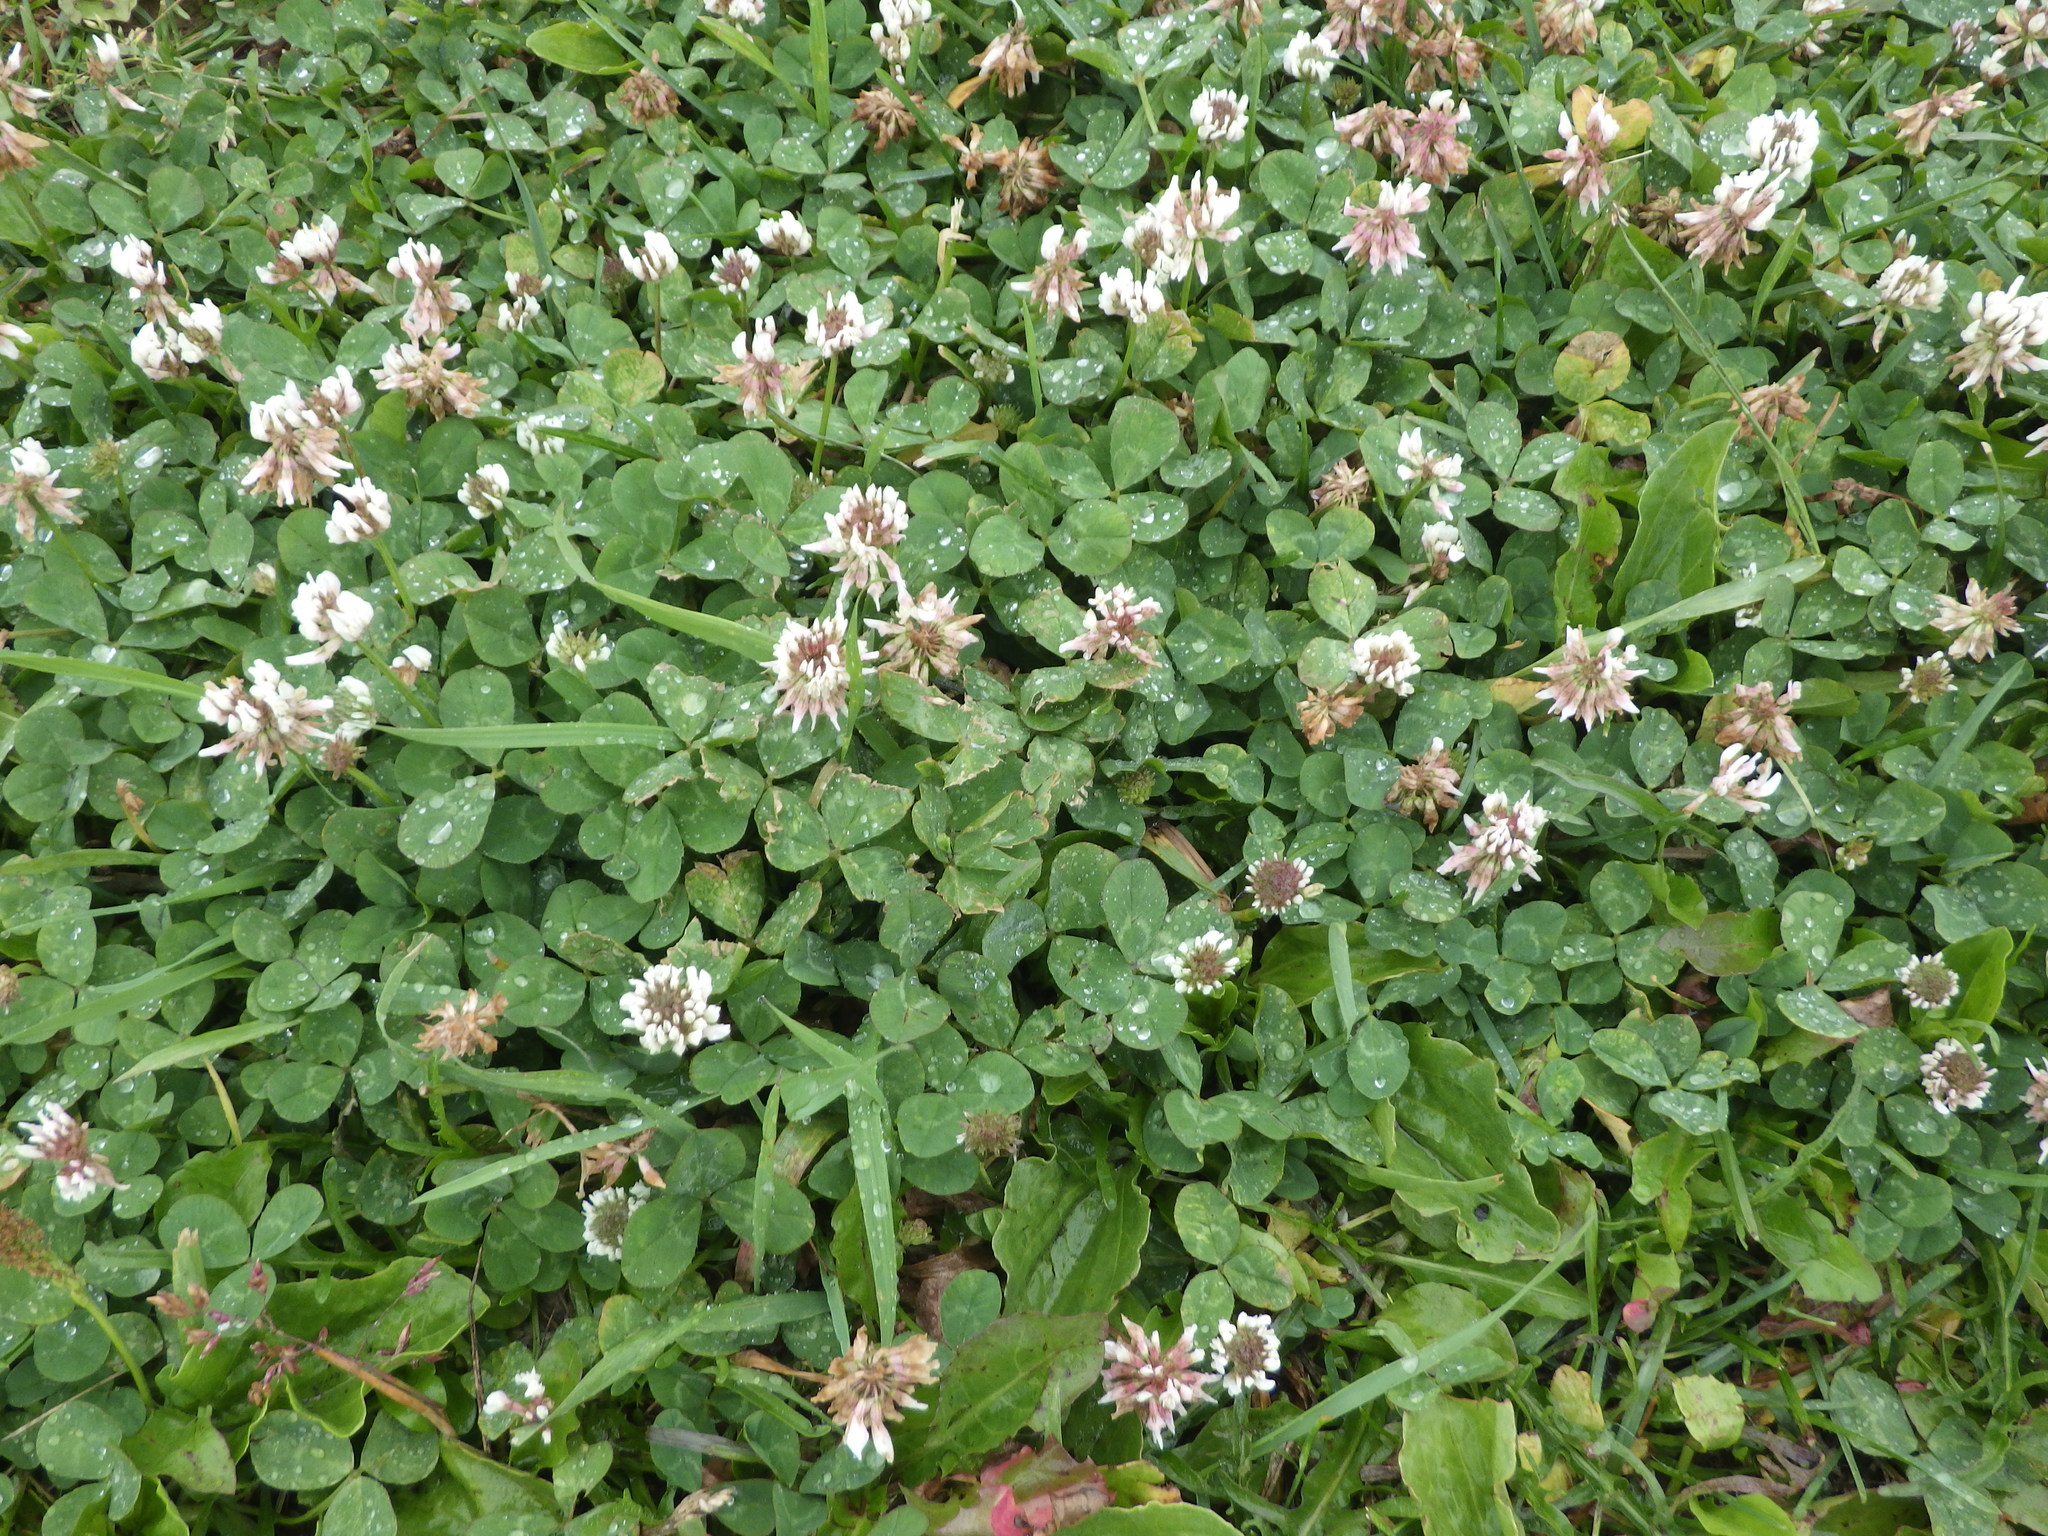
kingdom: Plantae
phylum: Tracheophyta
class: Magnoliopsida
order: Fabales
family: Fabaceae
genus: Trifolium
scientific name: Trifolium repens
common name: White clover
